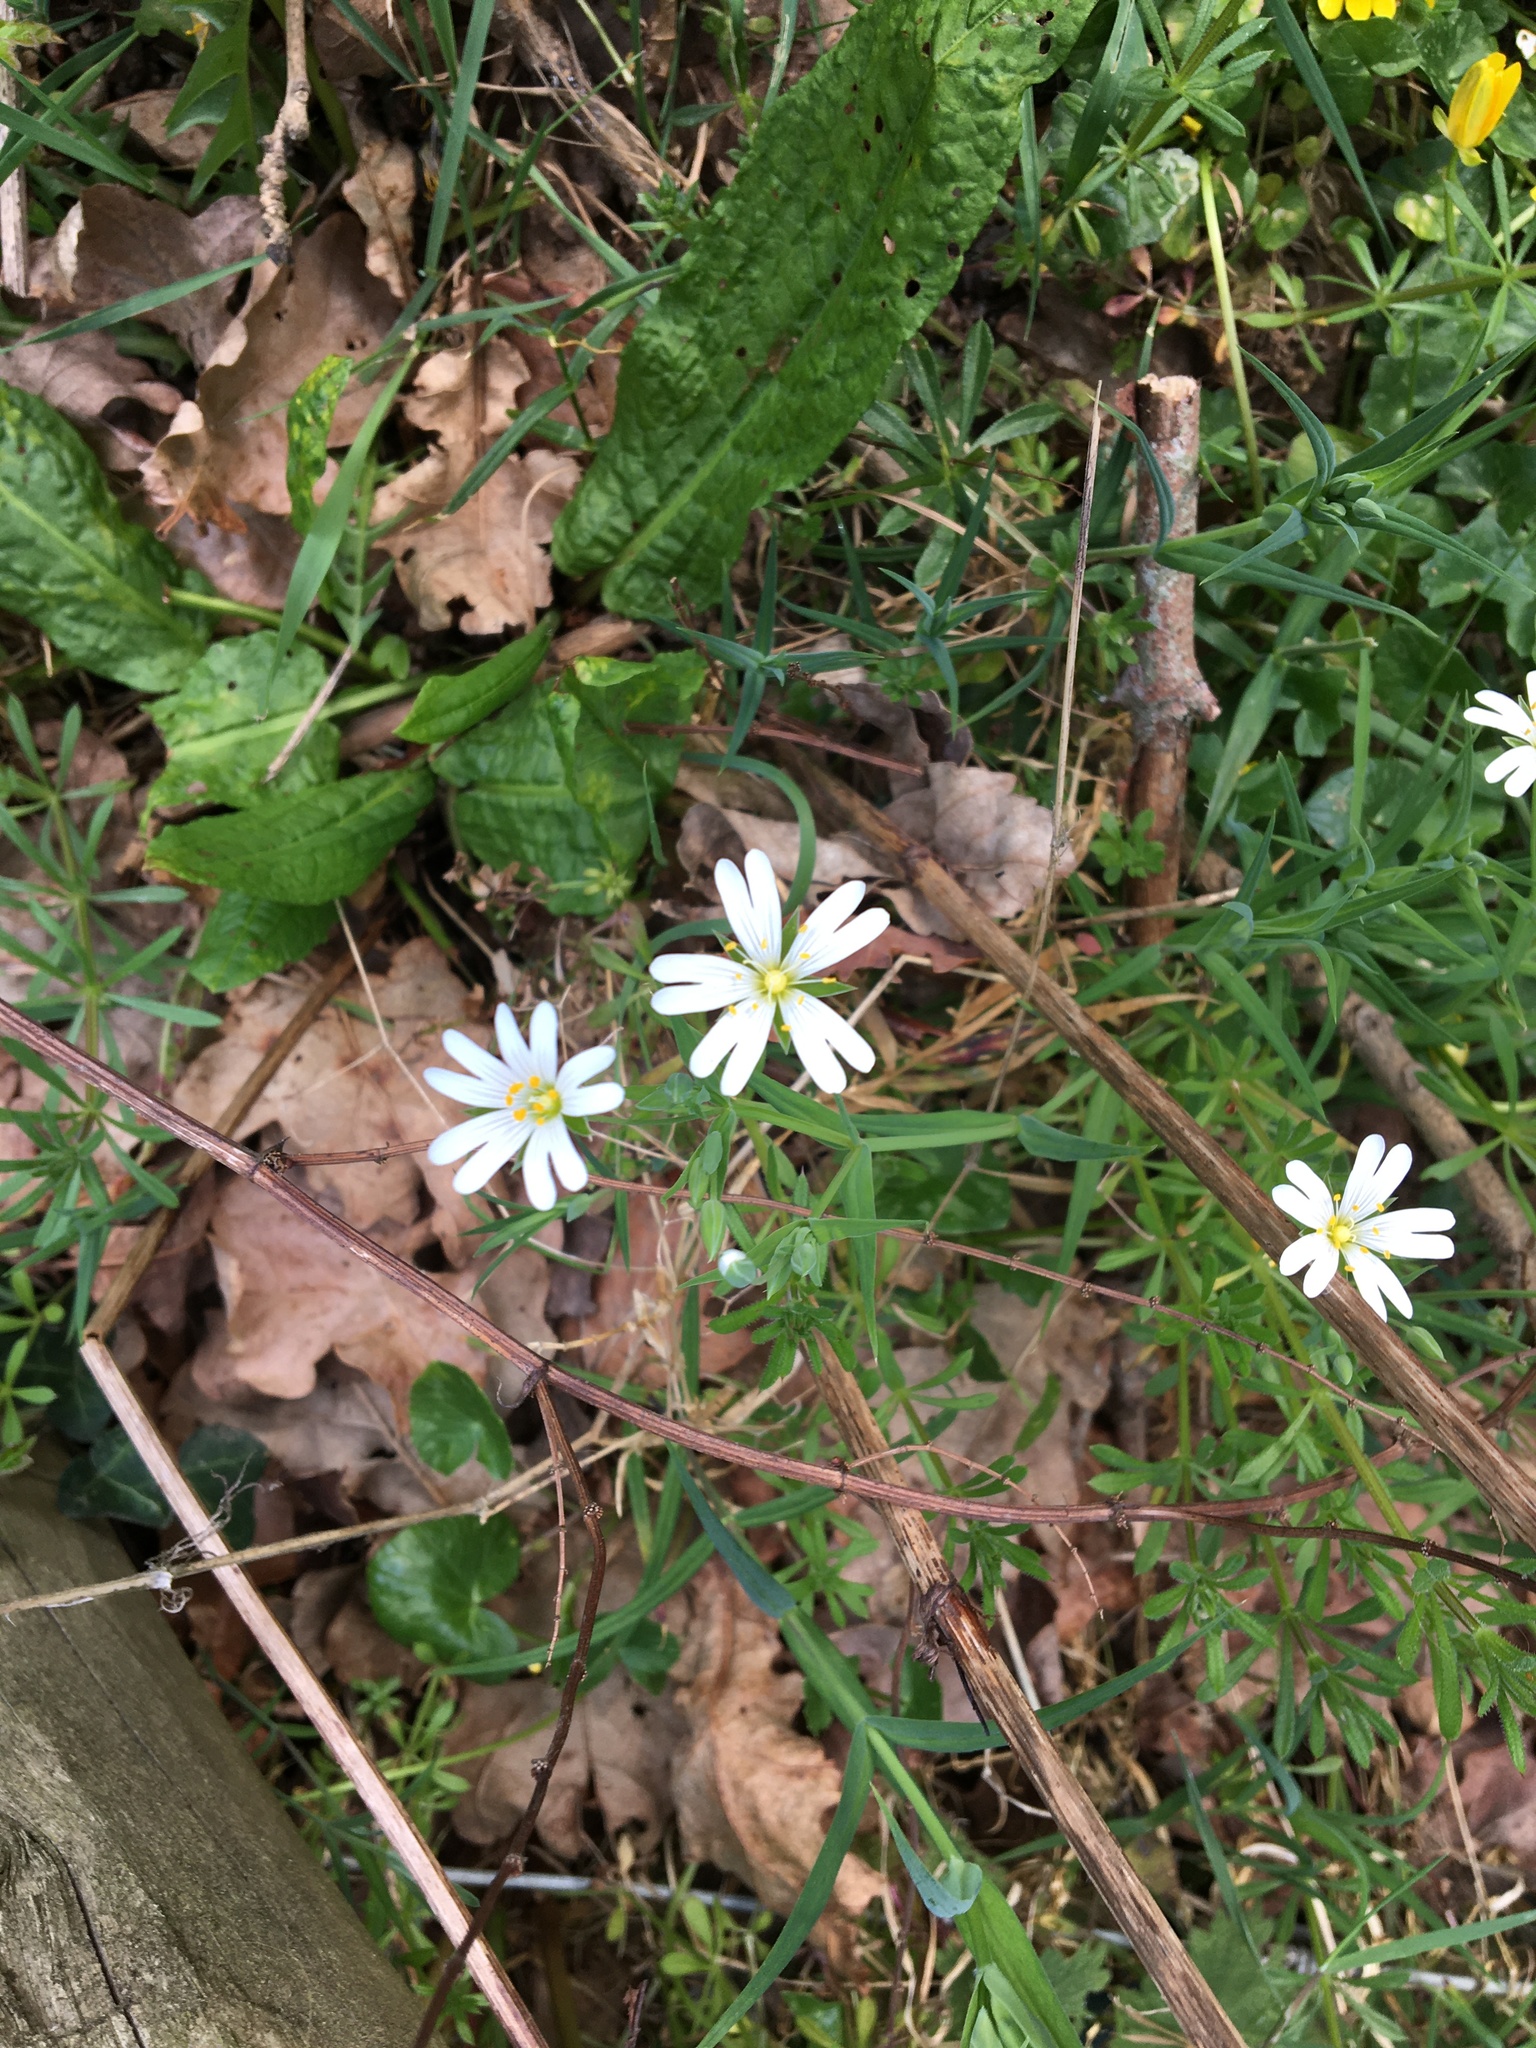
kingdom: Plantae
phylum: Tracheophyta
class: Magnoliopsida
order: Caryophyllales
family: Caryophyllaceae
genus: Rabelera
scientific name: Rabelera holostea
